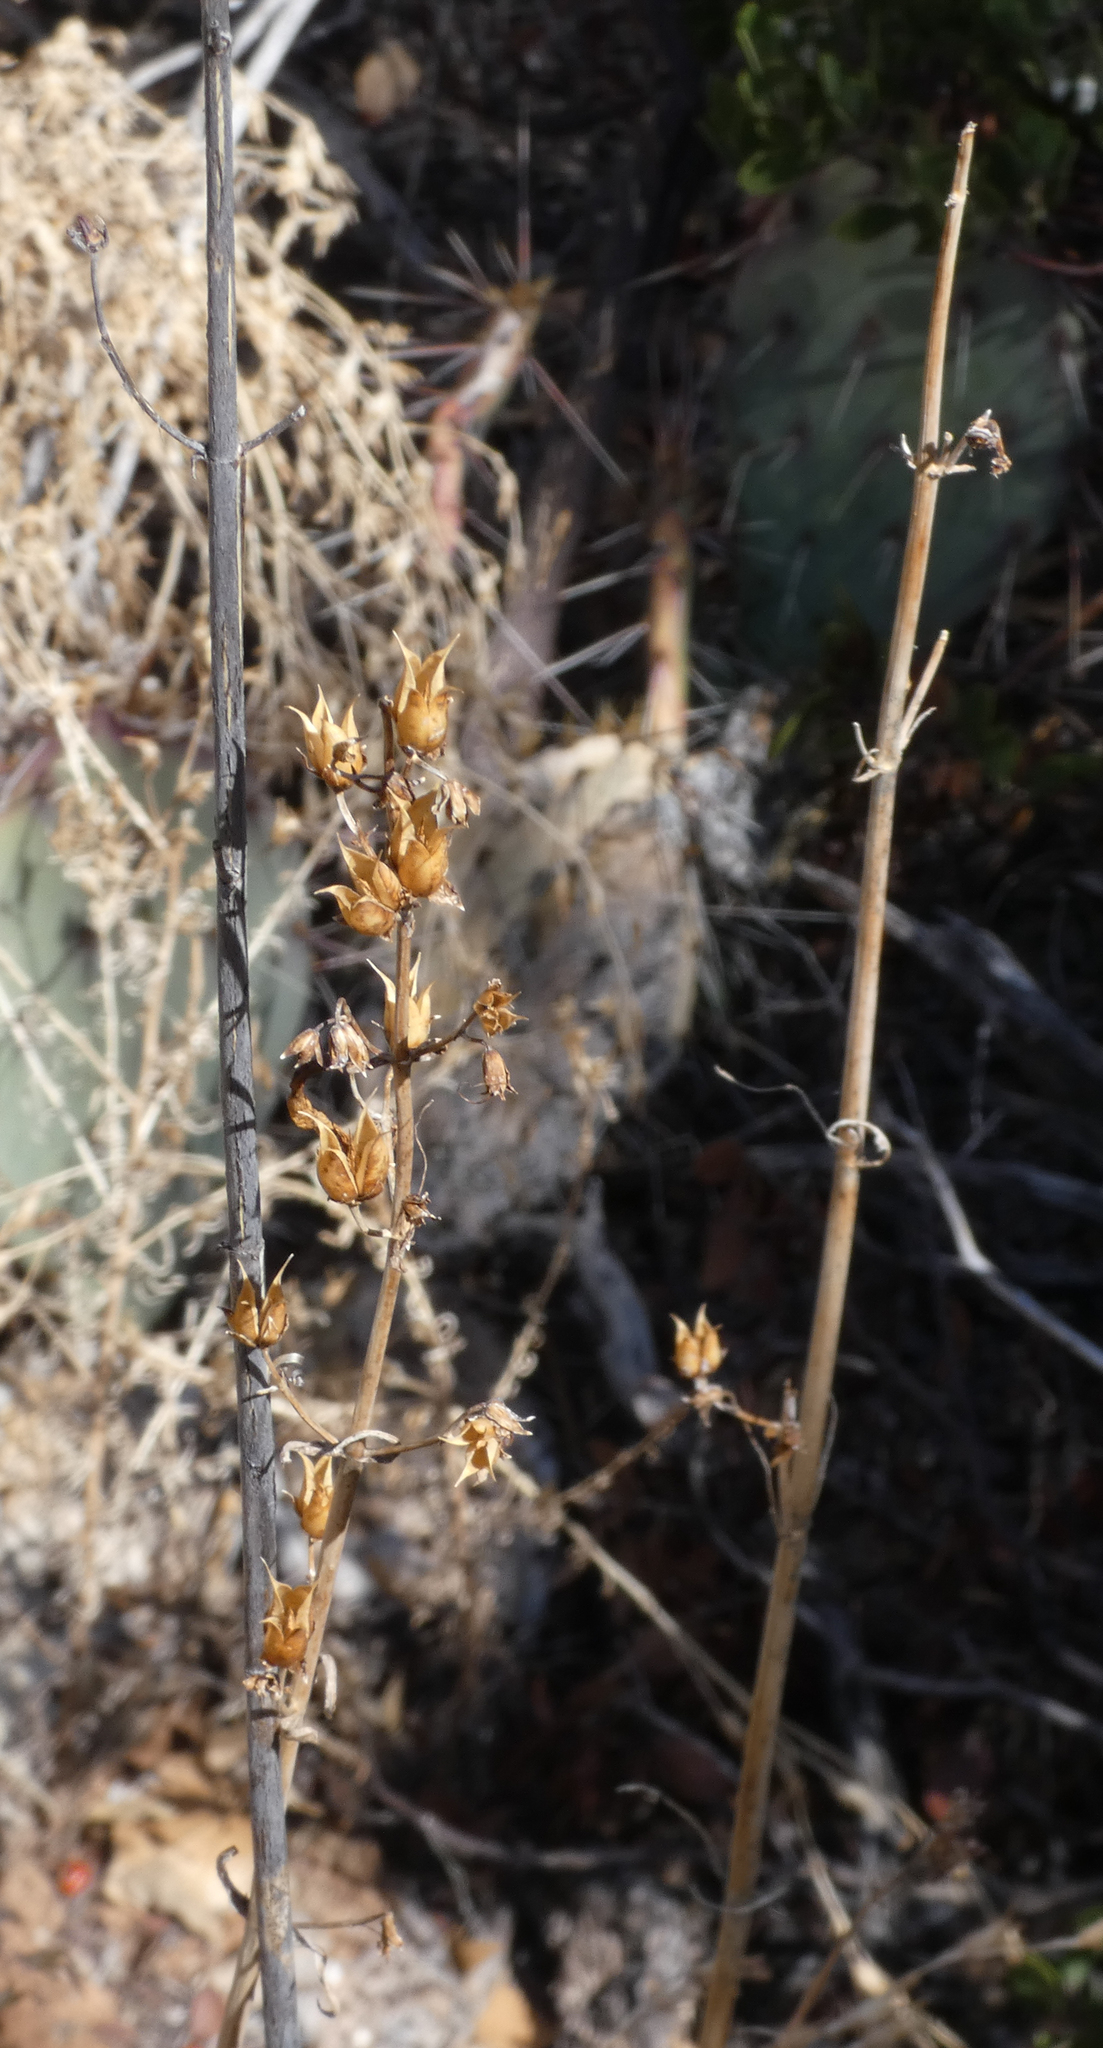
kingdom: Plantae
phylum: Tracheophyta
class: Magnoliopsida
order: Lamiales
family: Plantaginaceae
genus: Penstemon
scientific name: Penstemon
